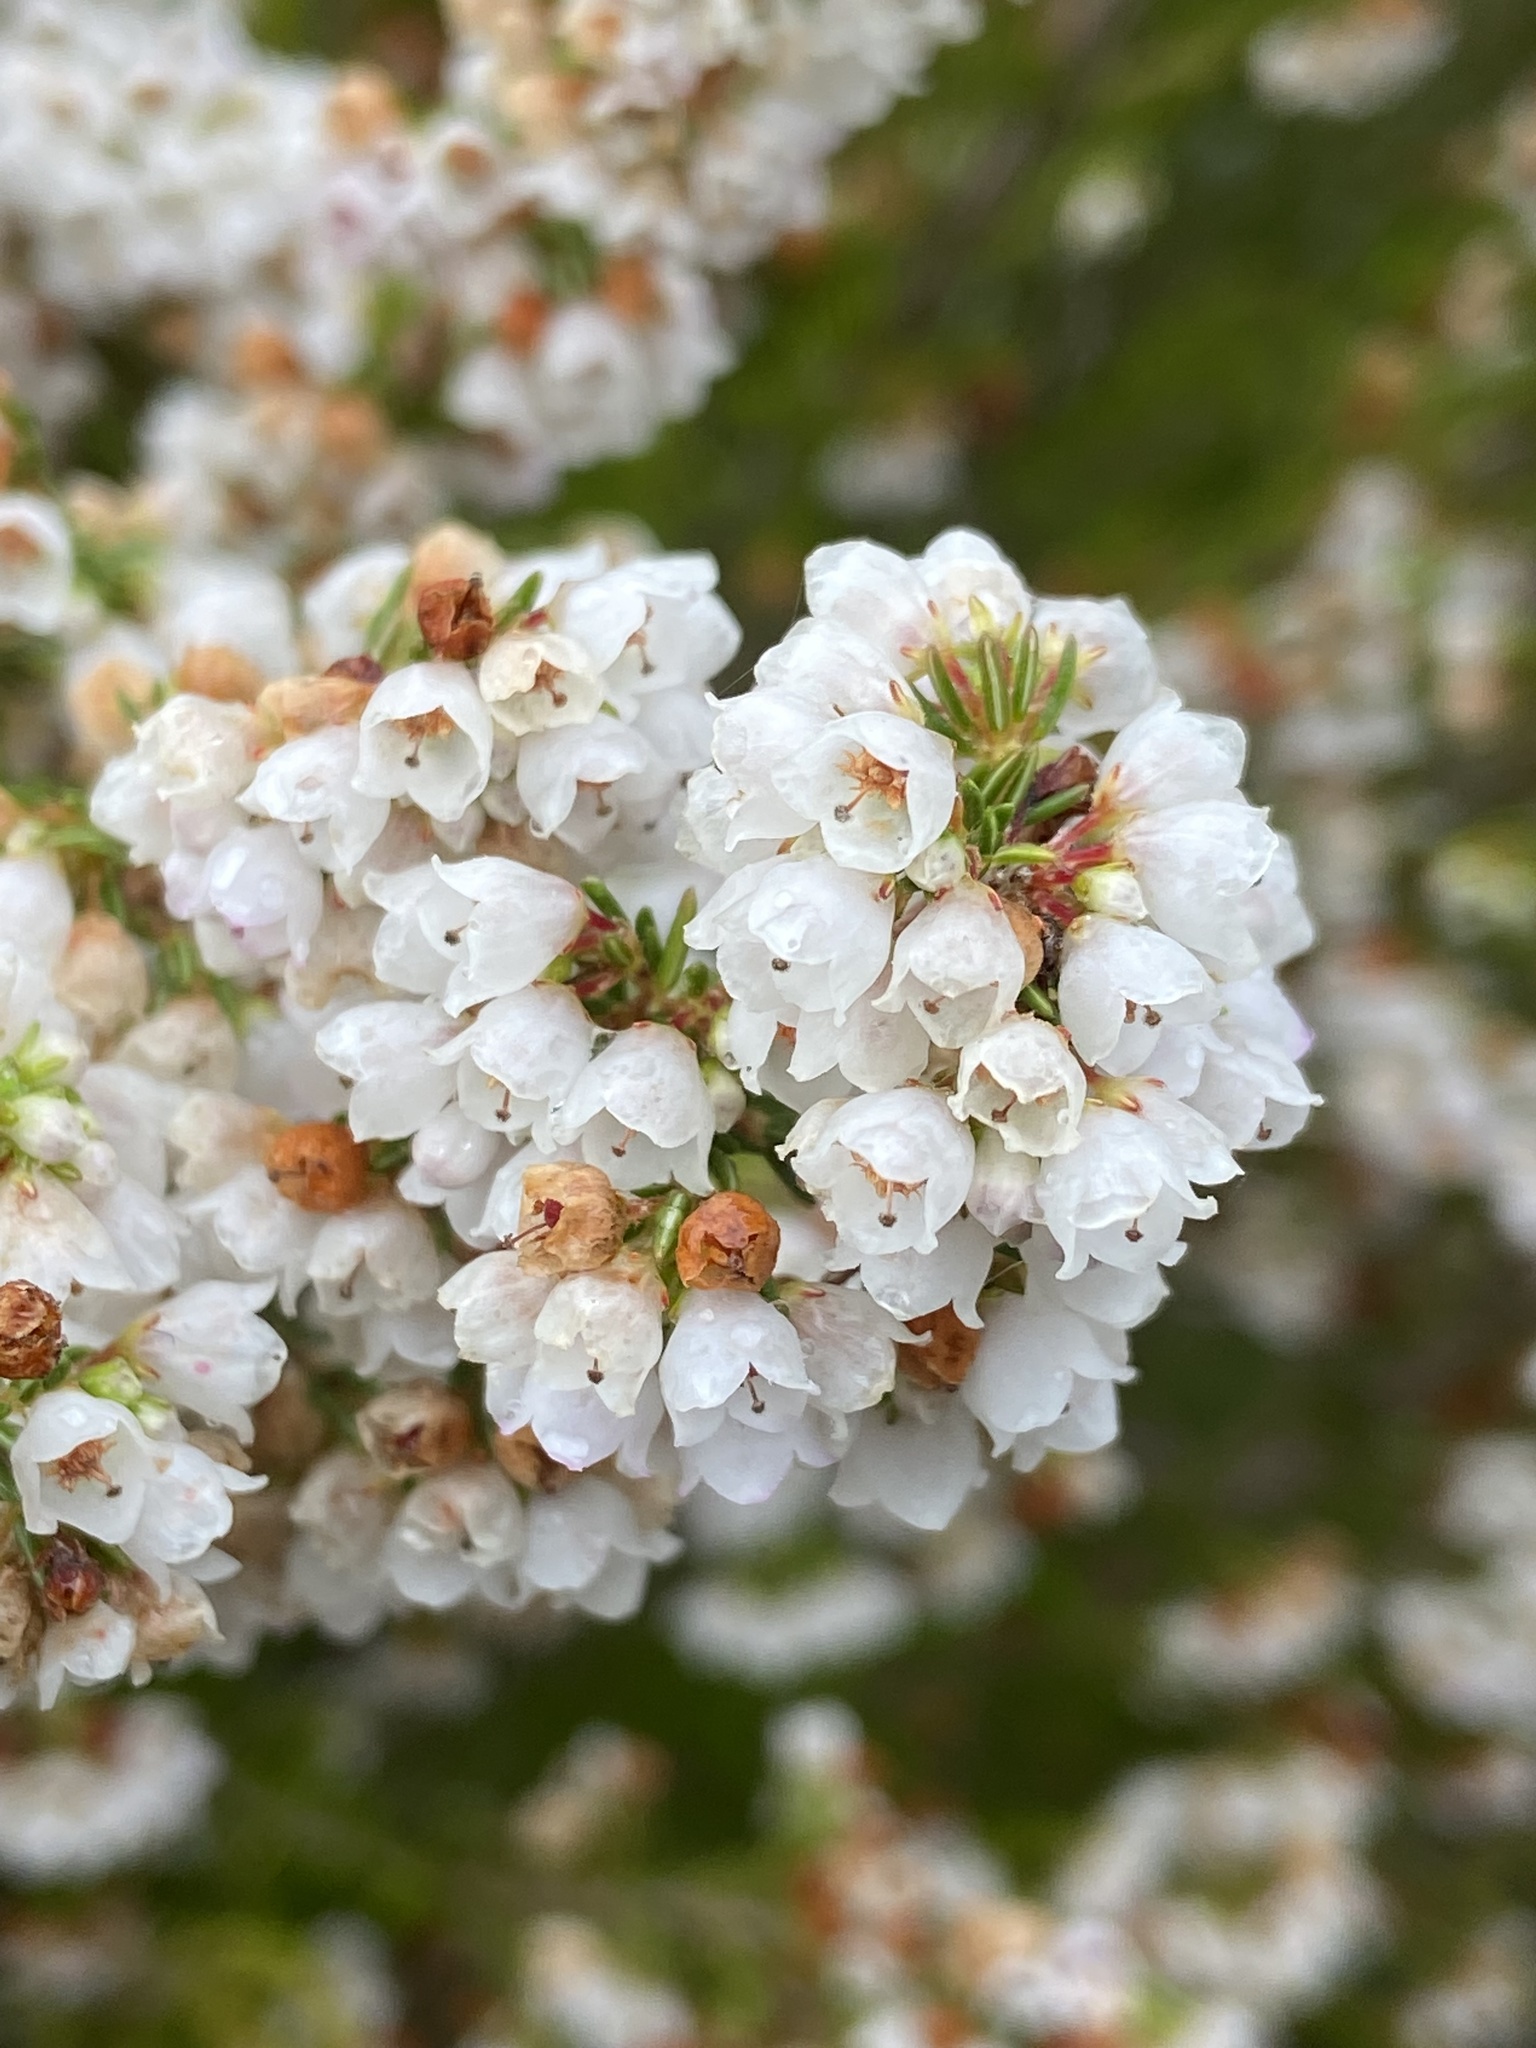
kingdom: Plantae
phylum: Tracheophyta
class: Magnoliopsida
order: Ericales
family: Ericaceae
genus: Erica
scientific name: Erica subdivaricata
